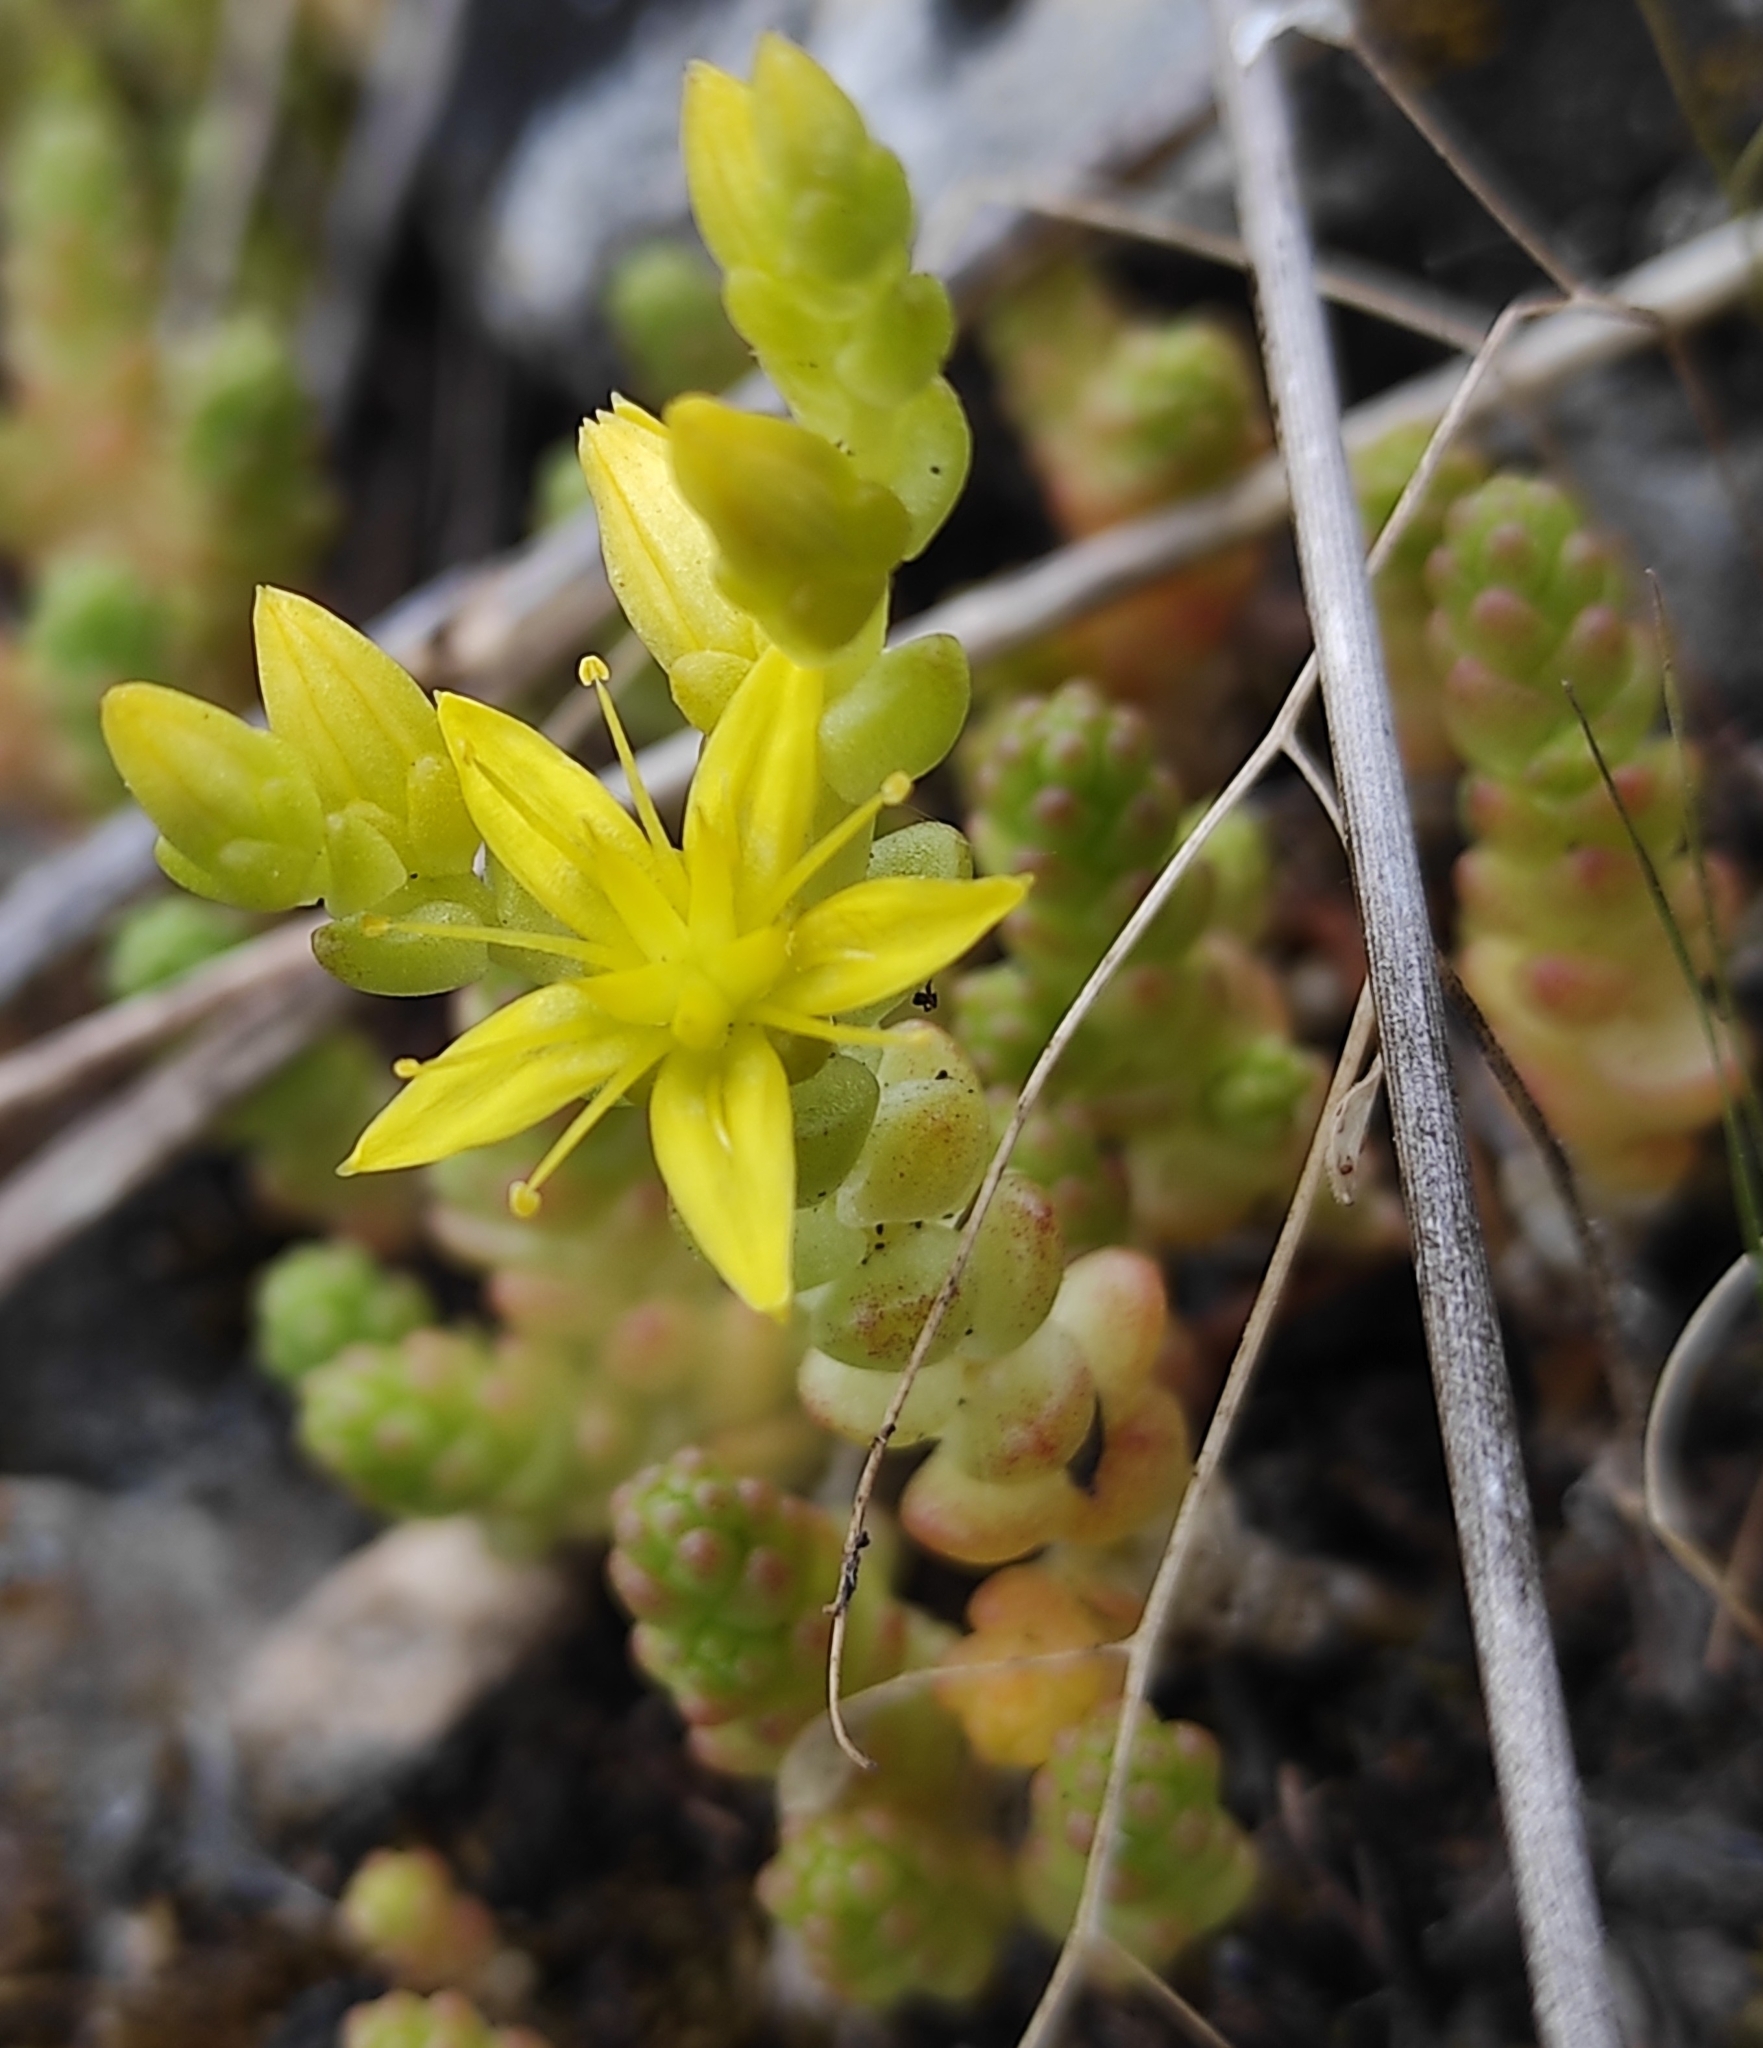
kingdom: Plantae
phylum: Tracheophyta
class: Magnoliopsida
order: Saxifragales
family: Crassulaceae
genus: Sedum
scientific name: Sedum acre
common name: Biting stonecrop
